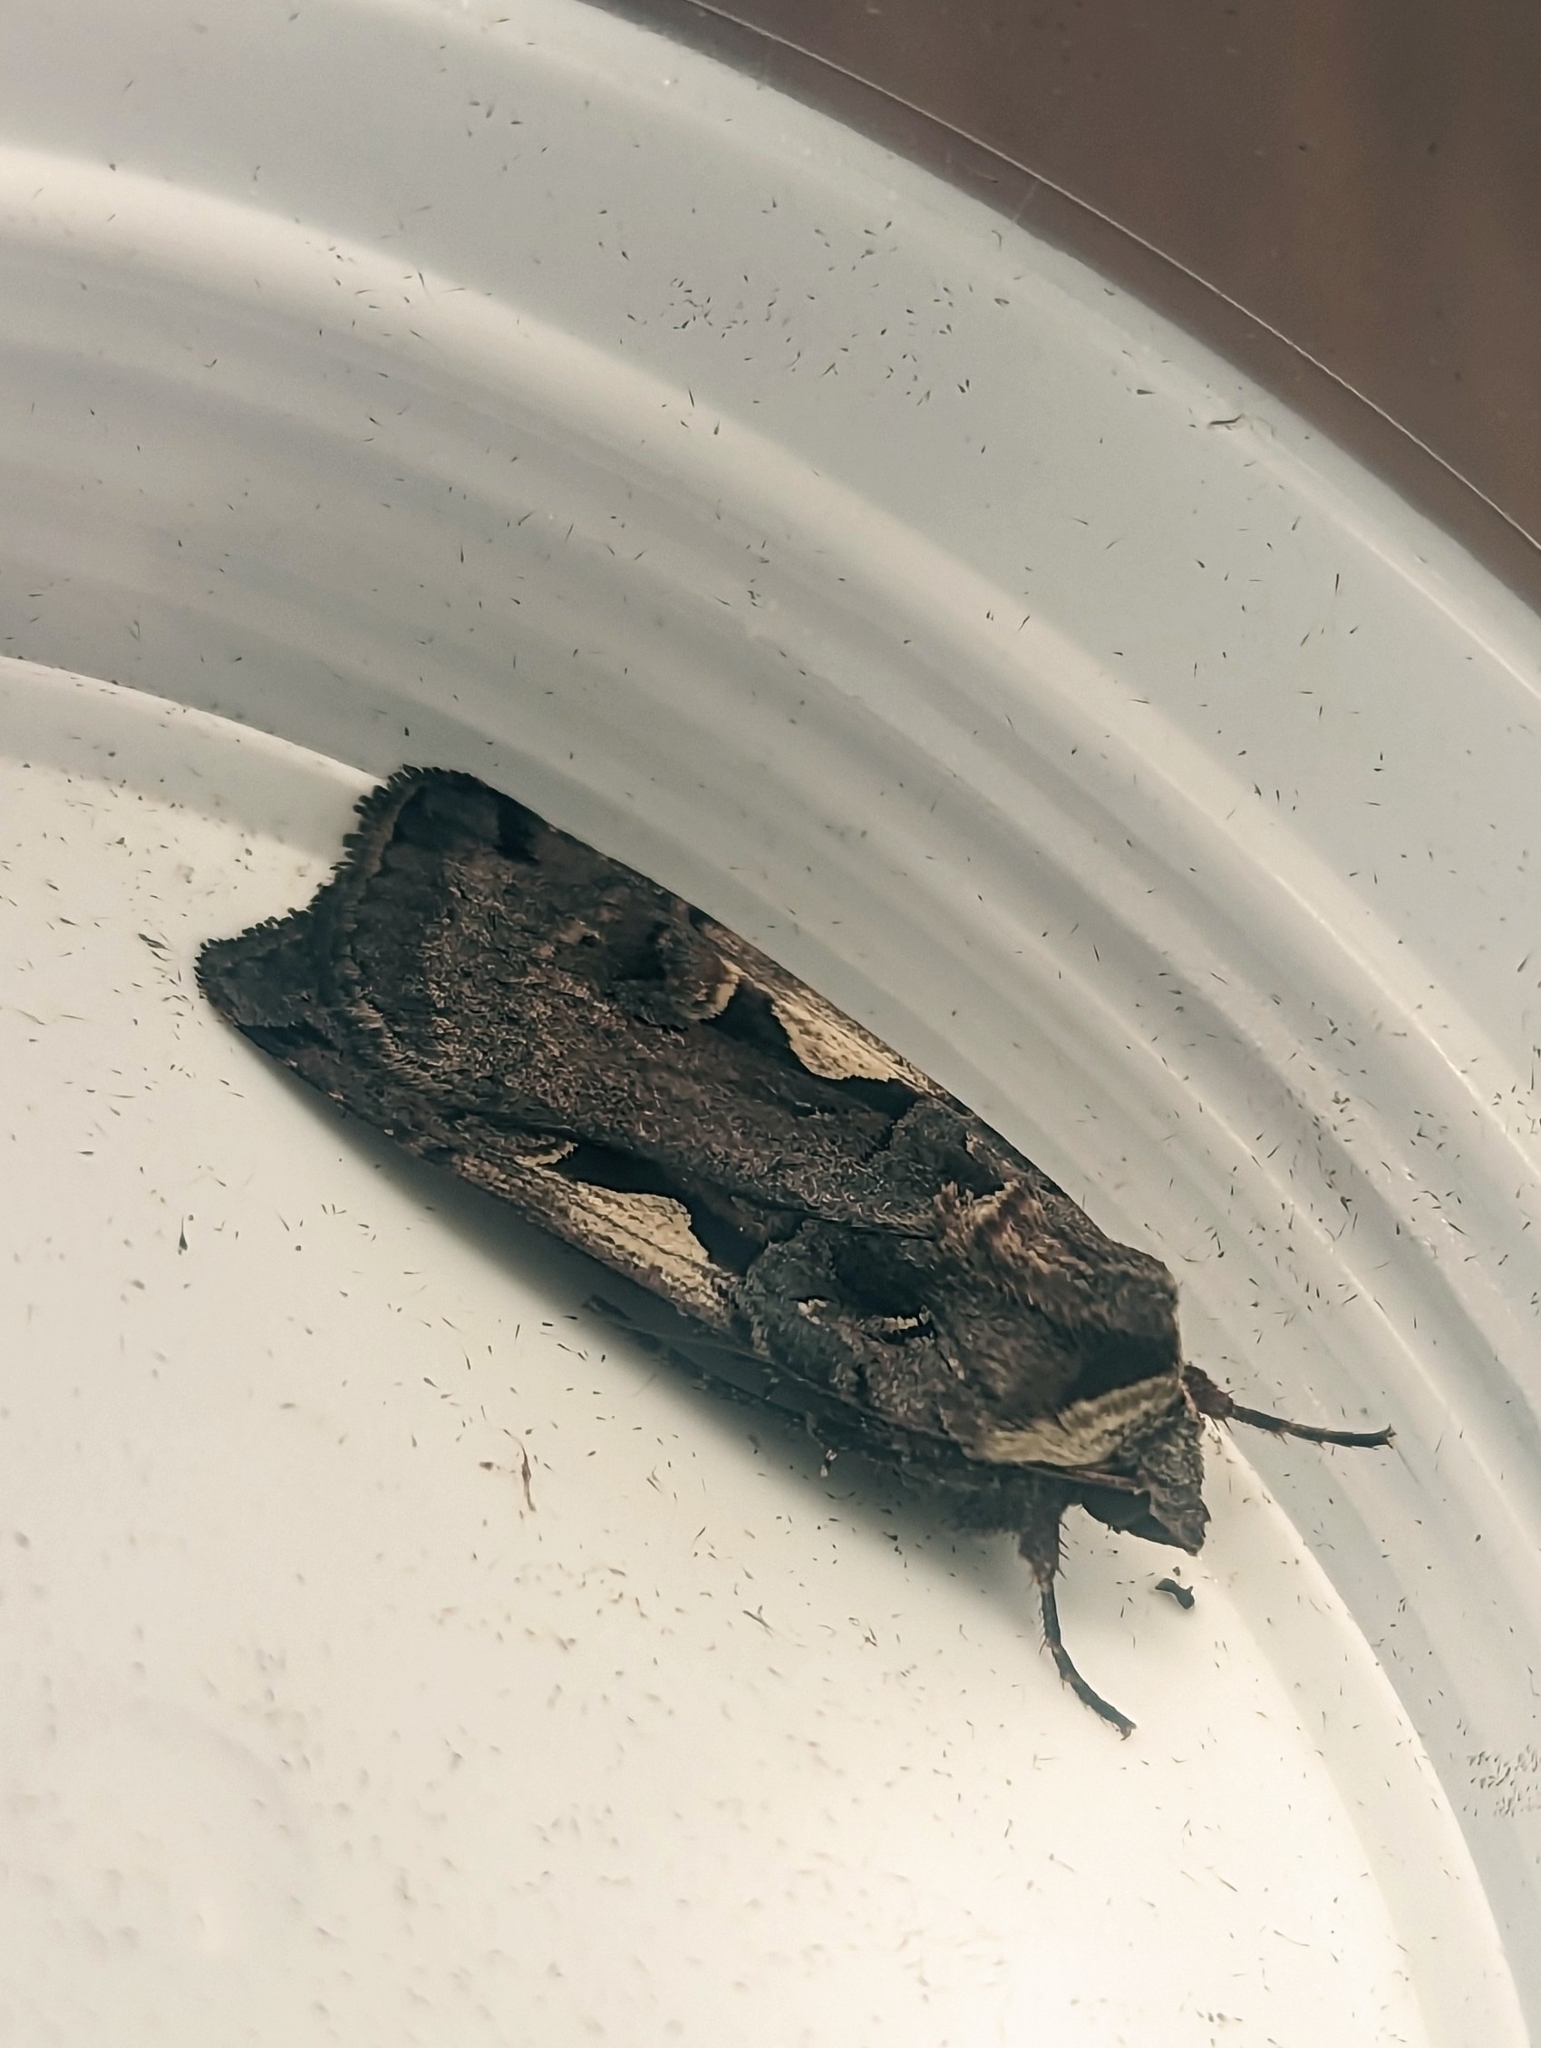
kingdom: Animalia
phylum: Arthropoda
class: Insecta
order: Lepidoptera
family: Noctuidae
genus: Xestia
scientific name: Xestia c-nigrum
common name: Setaceous hebrew character
